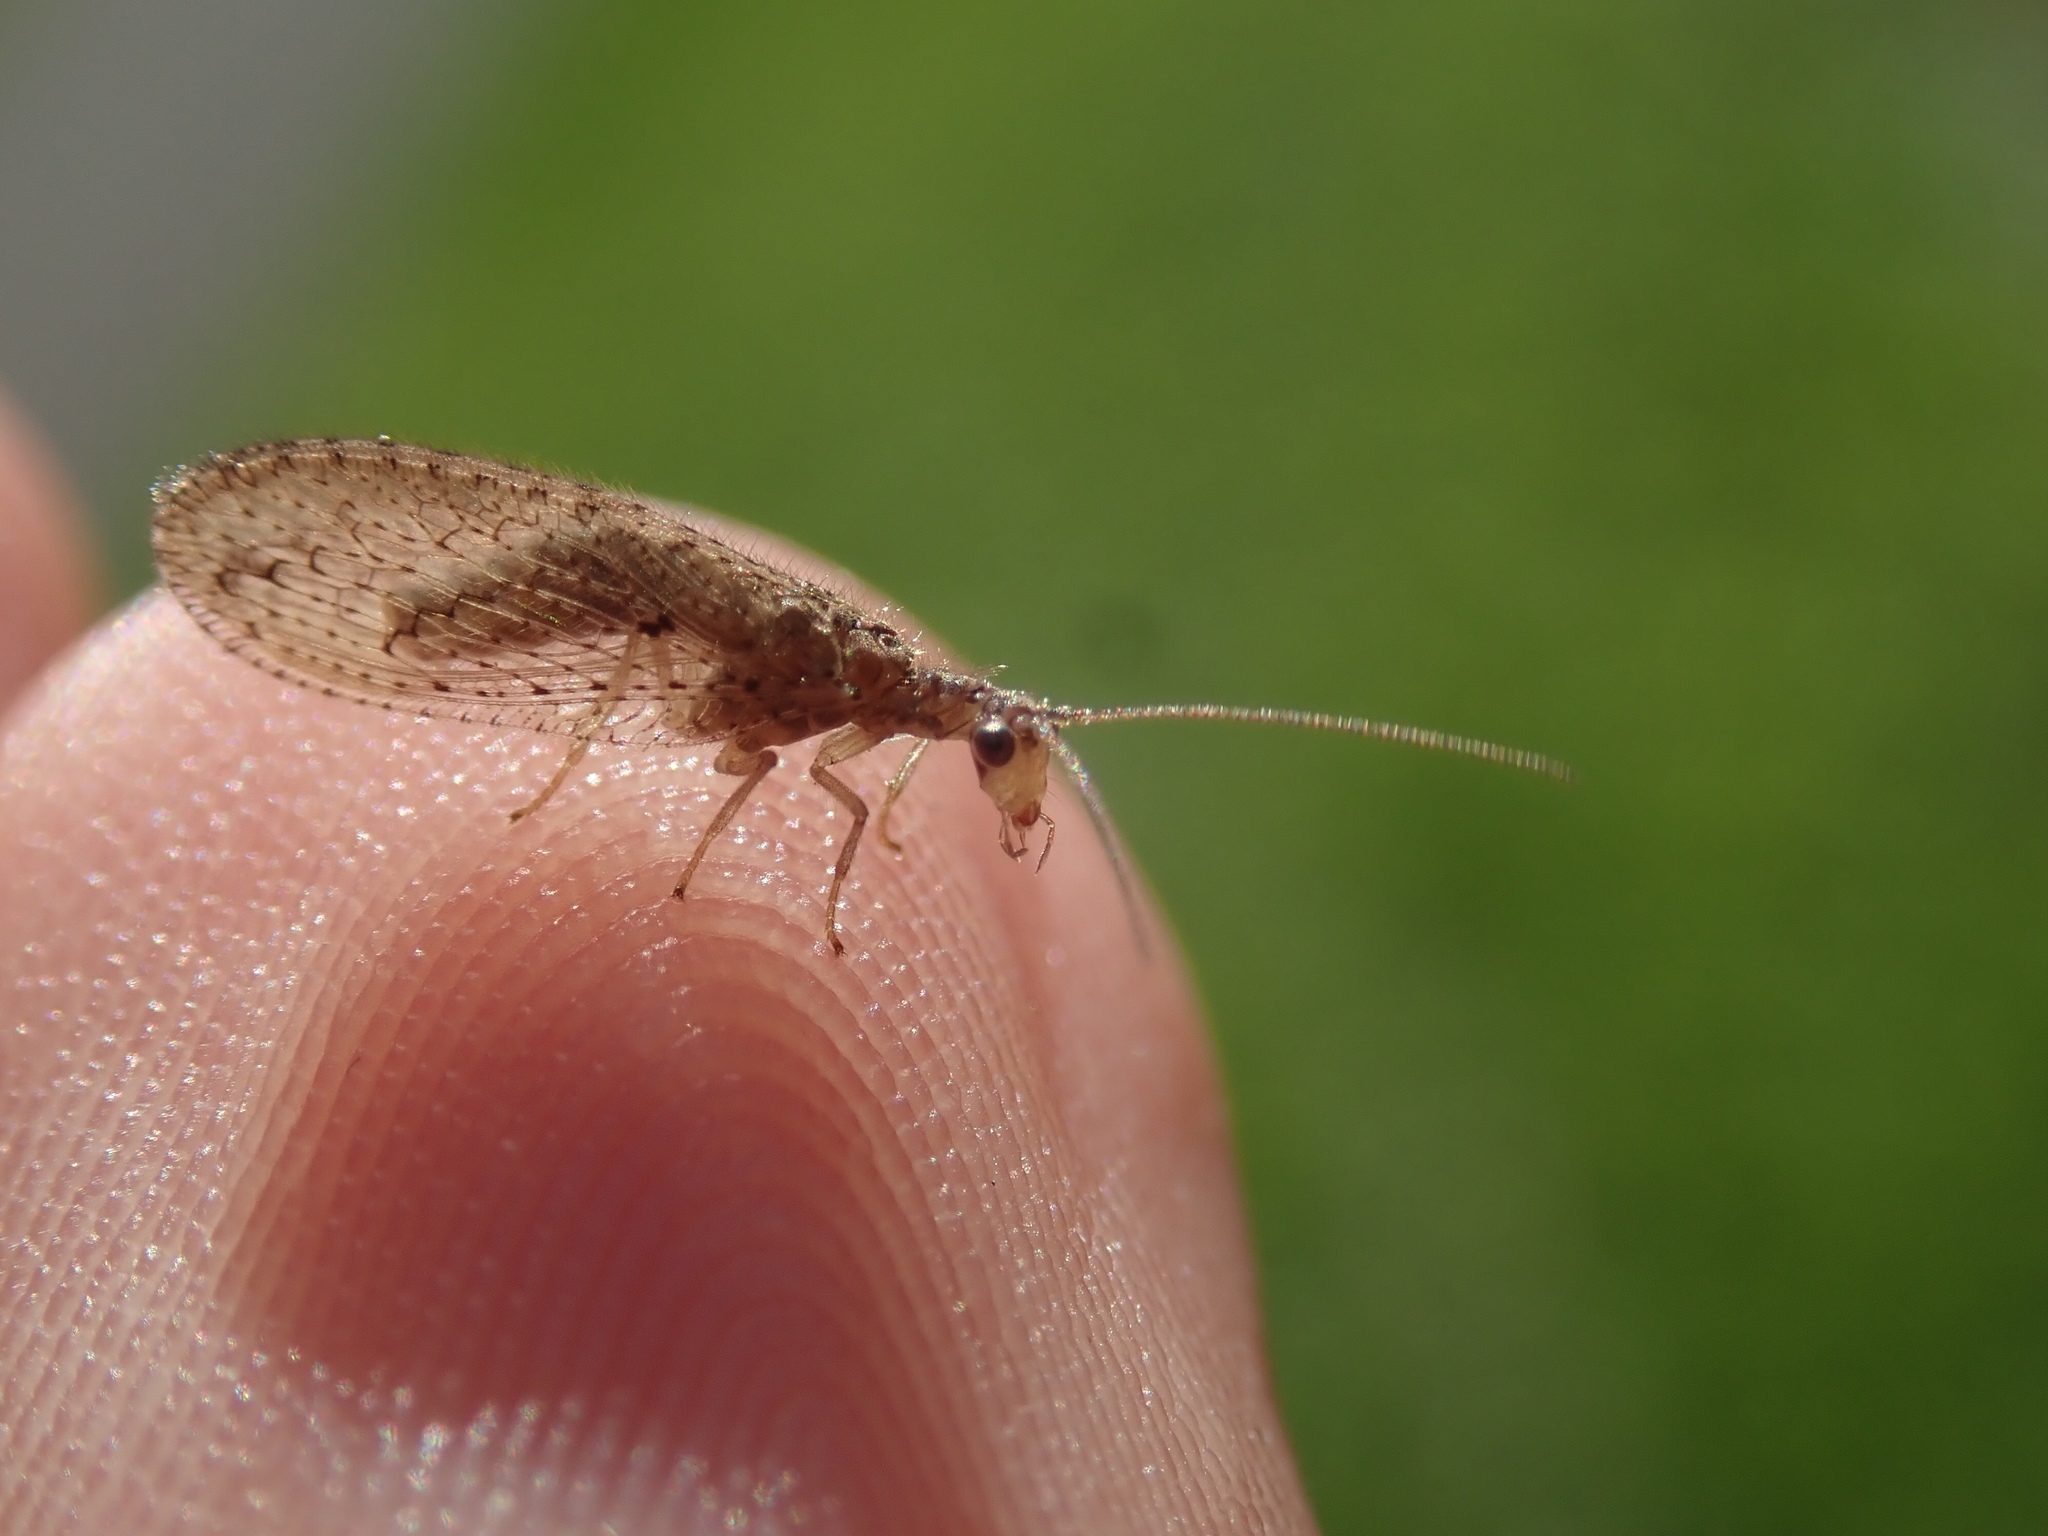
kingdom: Animalia
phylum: Arthropoda
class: Insecta
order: Neuroptera
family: Hemerobiidae
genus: Micromus
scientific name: Micromus tasmaniae
